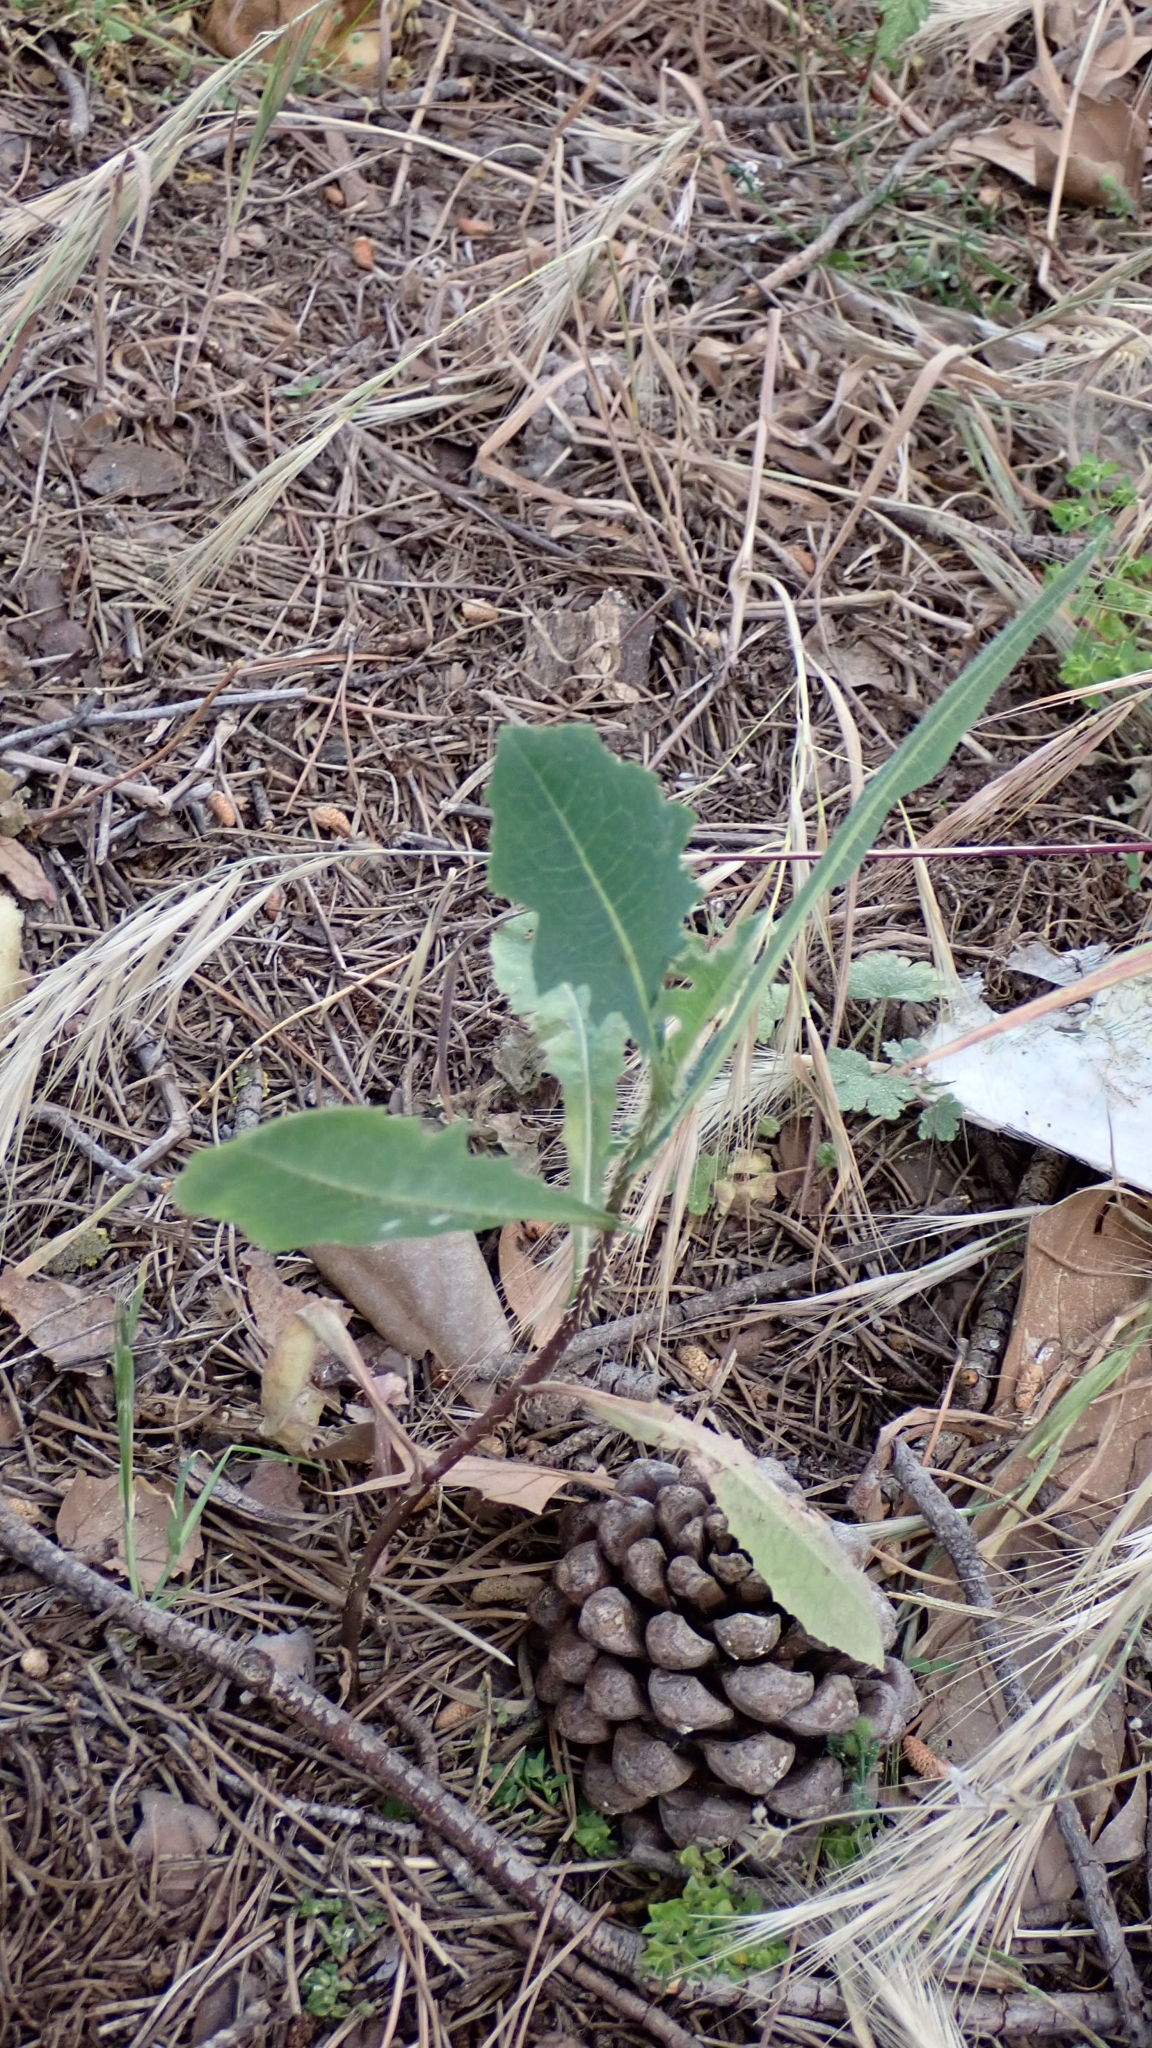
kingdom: Plantae
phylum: Tracheophyta
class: Magnoliopsida
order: Asterales
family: Asteraceae
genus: Lactuca
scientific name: Lactuca serriola
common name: Prickly lettuce
